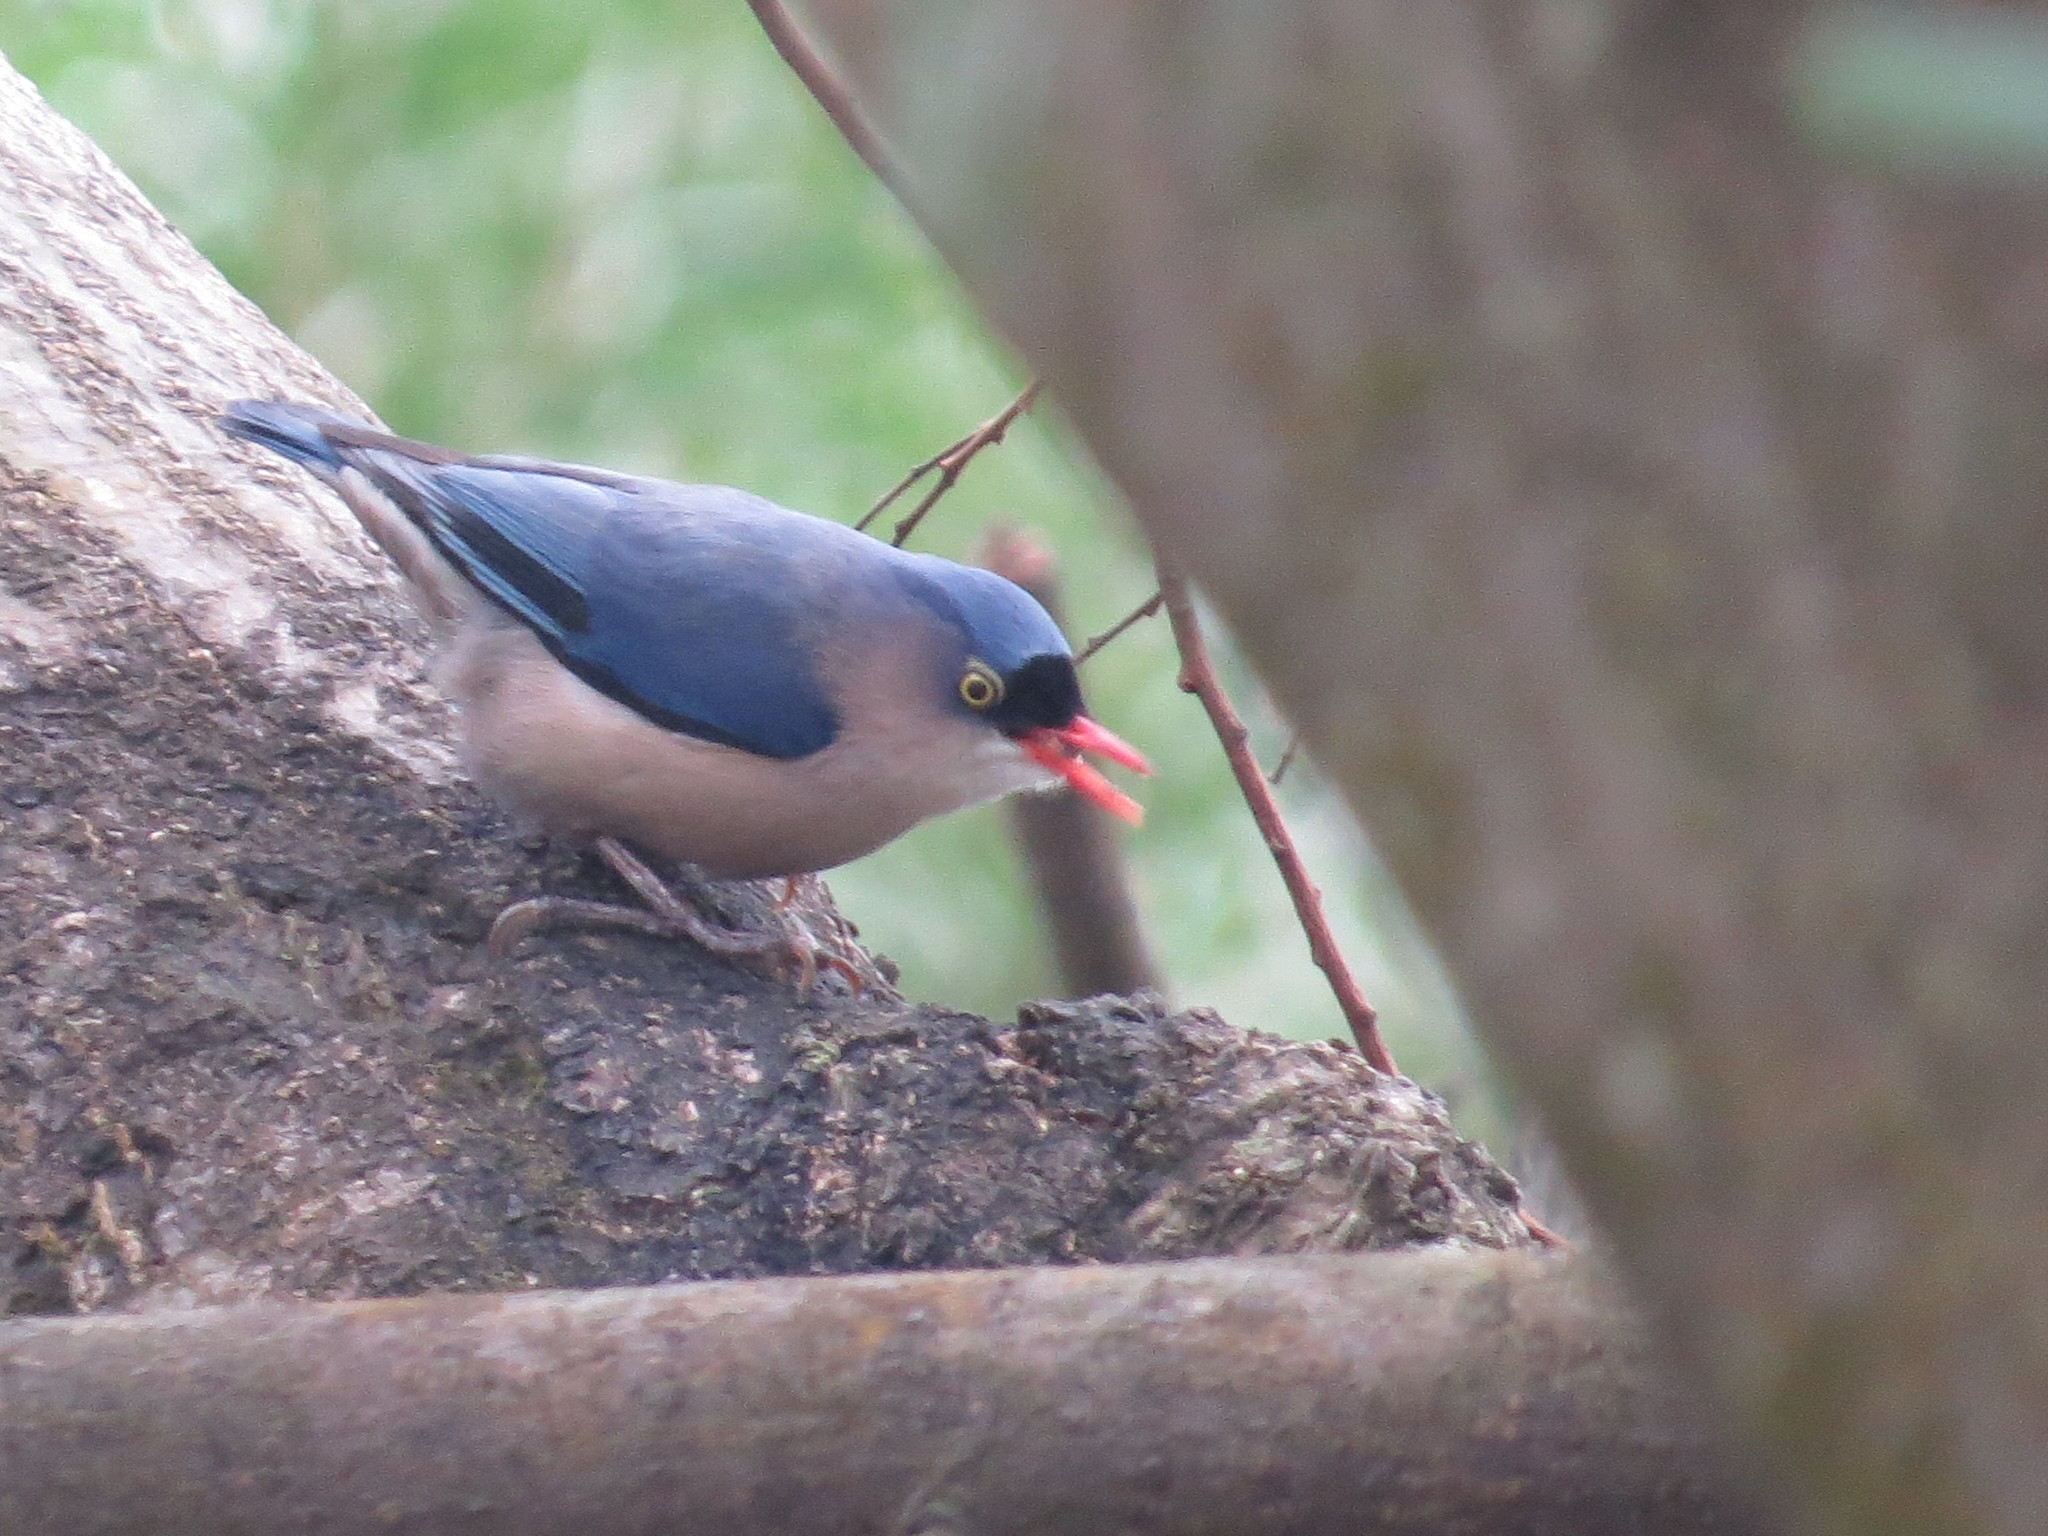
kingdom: Animalia
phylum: Chordata
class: Aves
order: Passeriformes
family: Sittidae
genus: Sitta
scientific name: Sitta frontalis
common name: Velvet-fronted nuthatch
